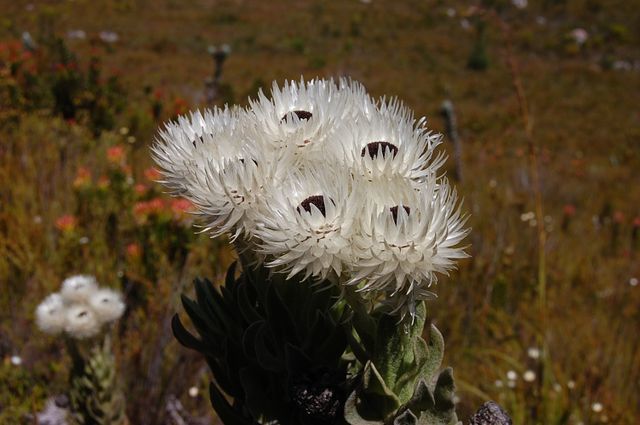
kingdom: Plantae
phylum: Tracheophyta
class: Magnoliopsida
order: Asterales
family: Asteraceae
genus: Syncarpha
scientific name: Syncarpha vestita
